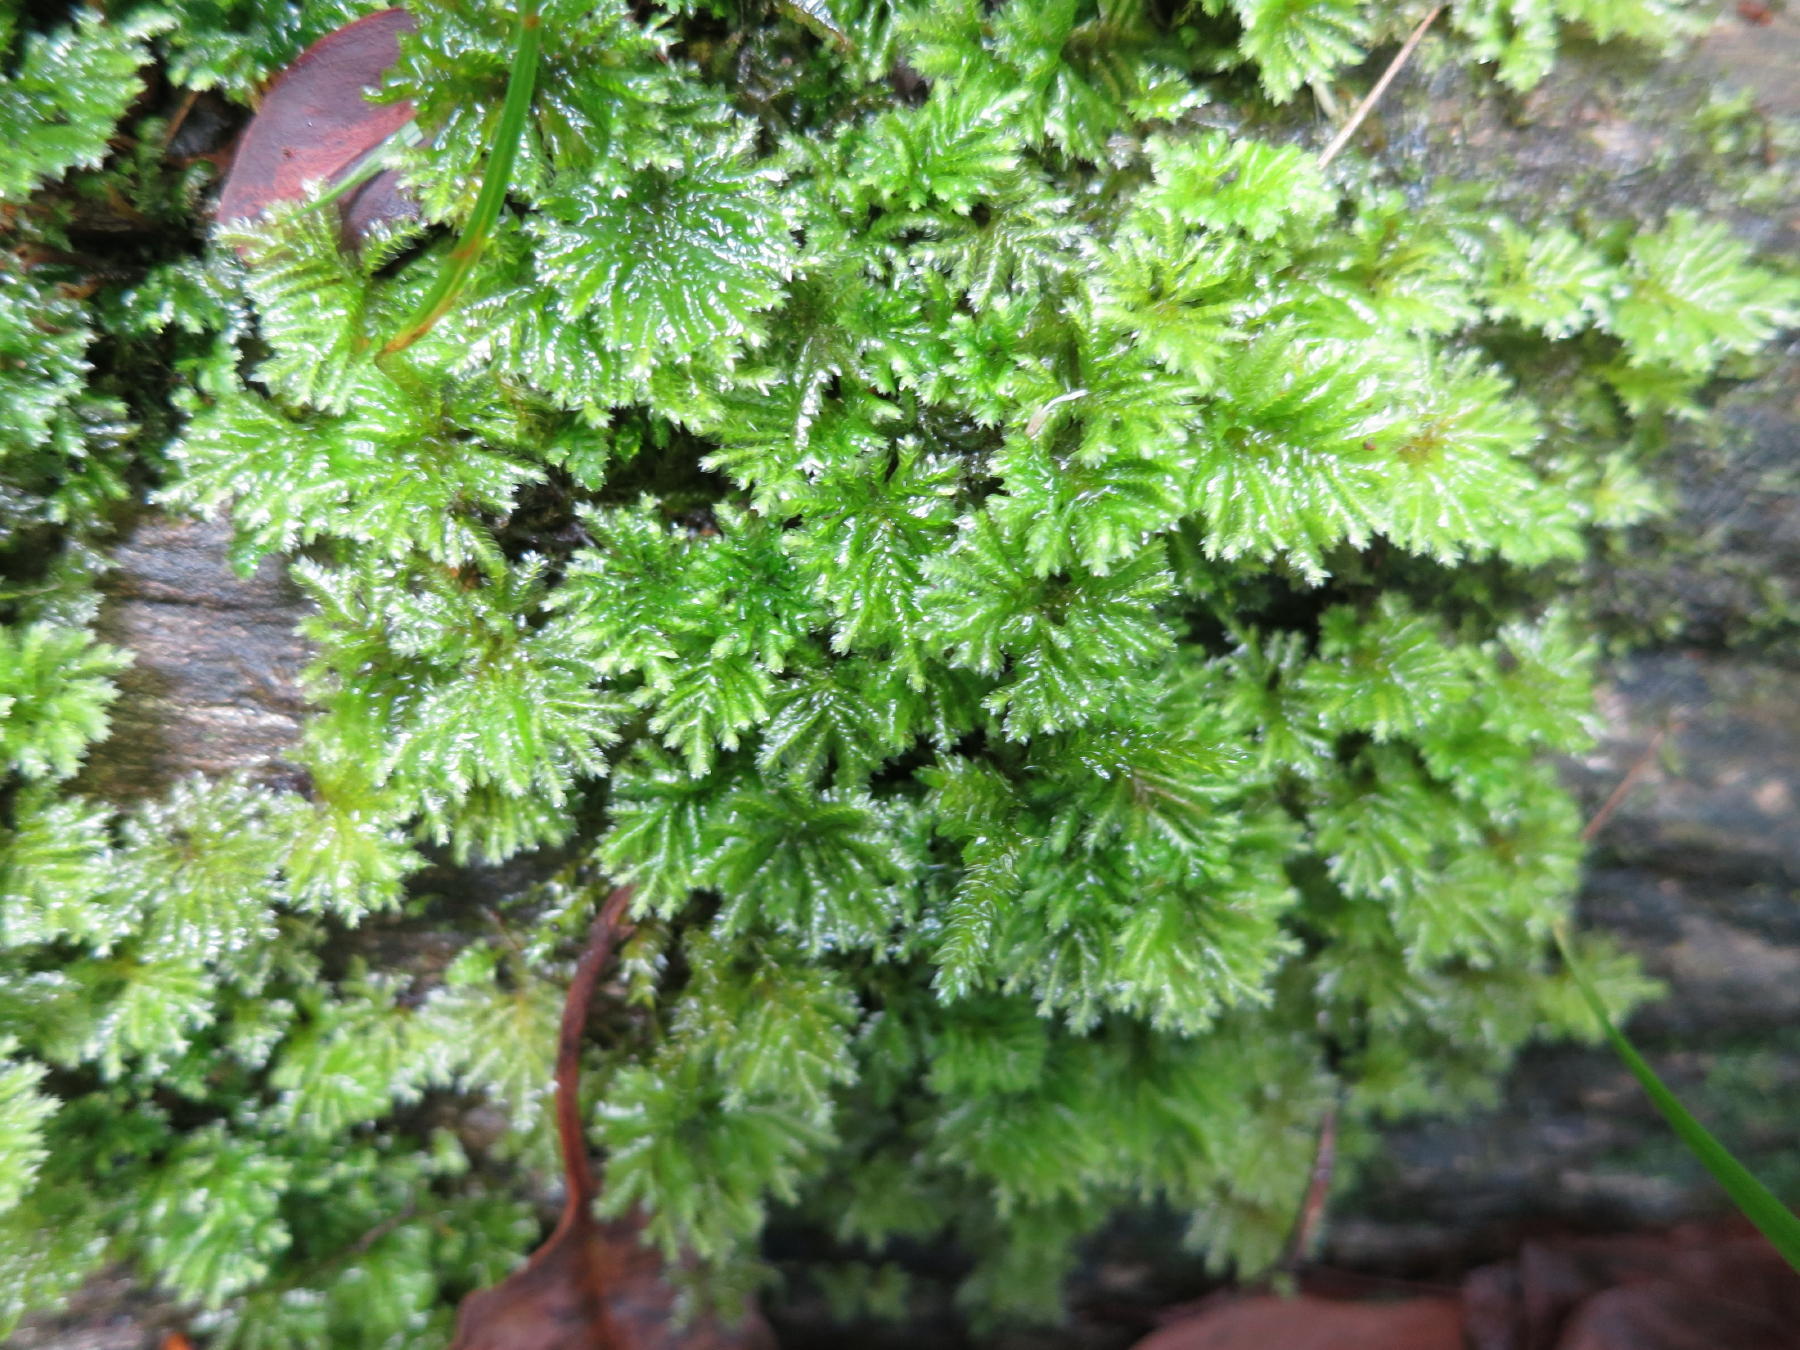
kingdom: Plantae
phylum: Bryophyta
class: Bryopsida
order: Hypopterygiales
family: Hypopterygiaceae
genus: Hypopterygium
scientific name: Hypopterygium tamarisci
